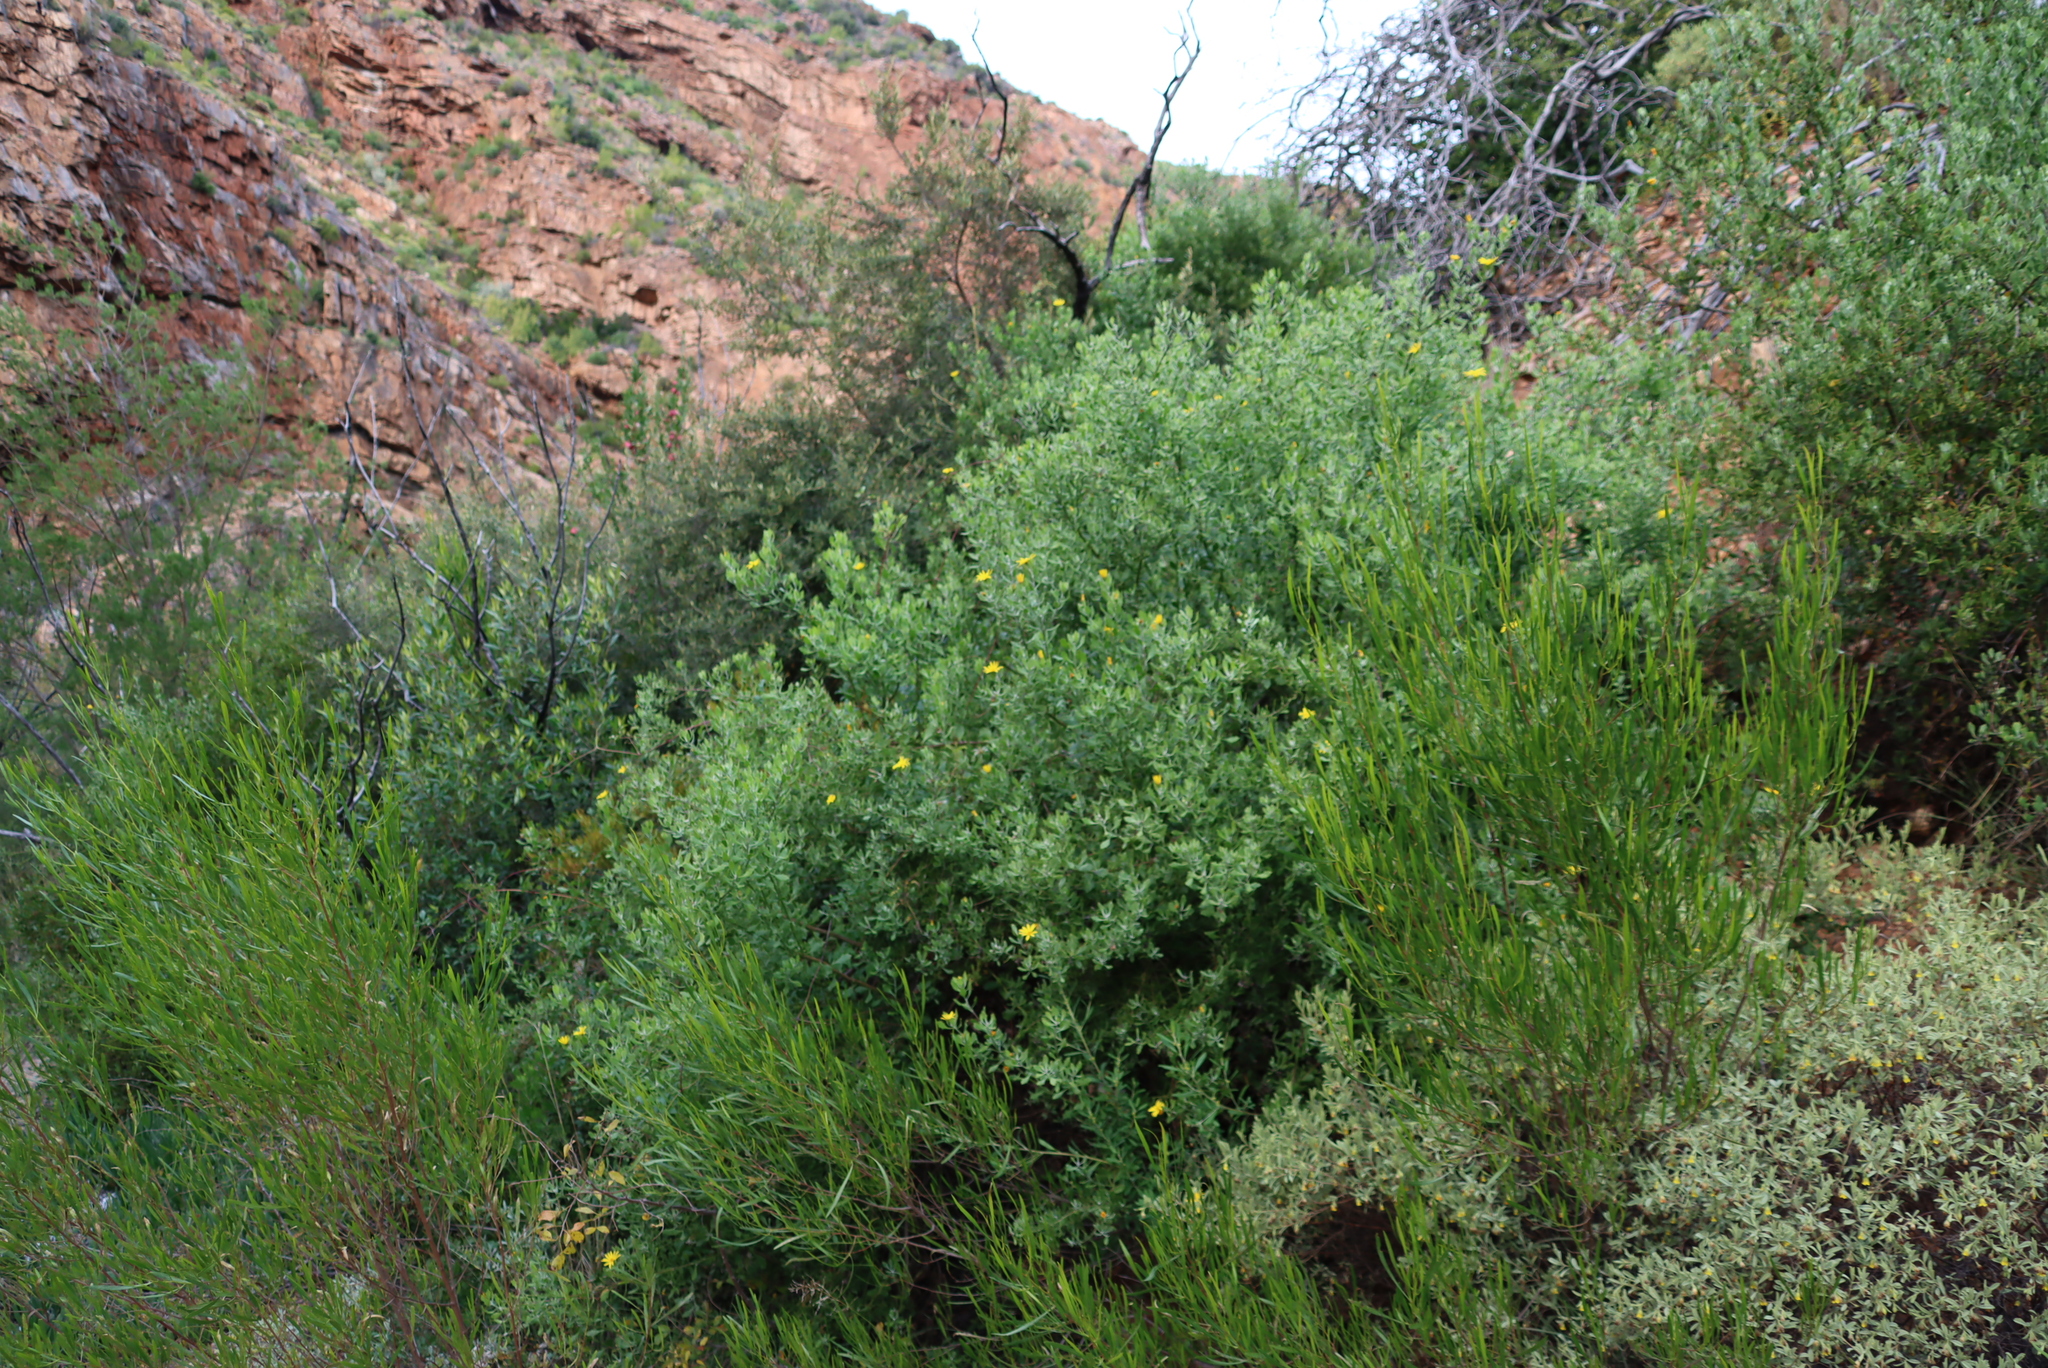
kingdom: Plantae
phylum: Tracheophyta
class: Magnoliopsida
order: Asterales
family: Asteraceae
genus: Osteospermum
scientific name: Osteospermum moniliferum
